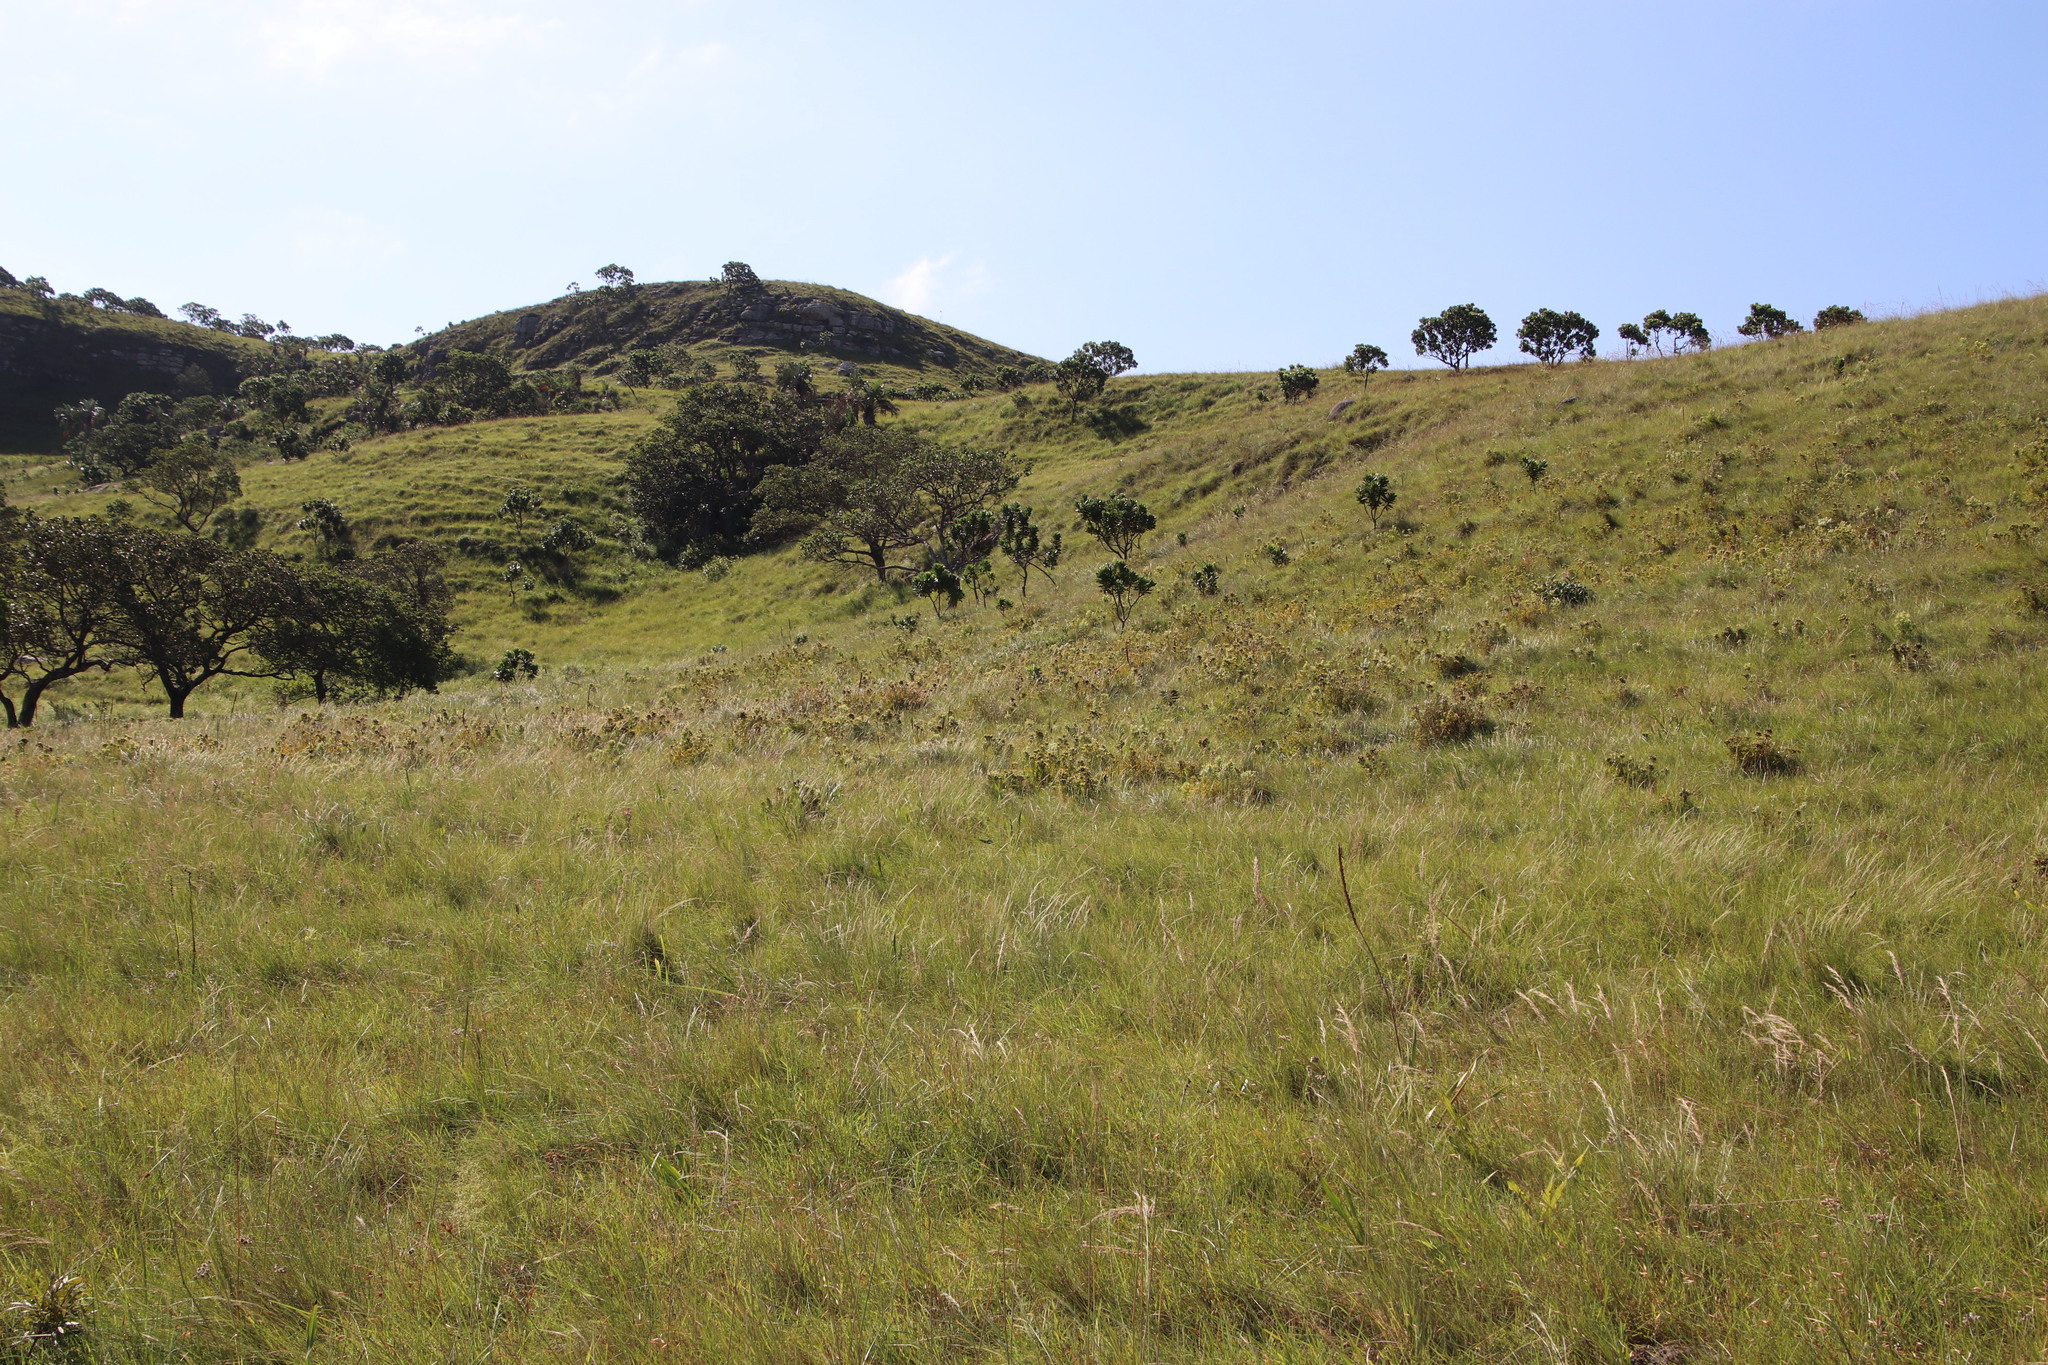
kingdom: Plantae
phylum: Tracheophyta
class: Magnoliopsida
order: Proteales
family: Proteaceae
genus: Leucadendron
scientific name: Leucadendron spissifolium
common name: Spear-leaf conebush
